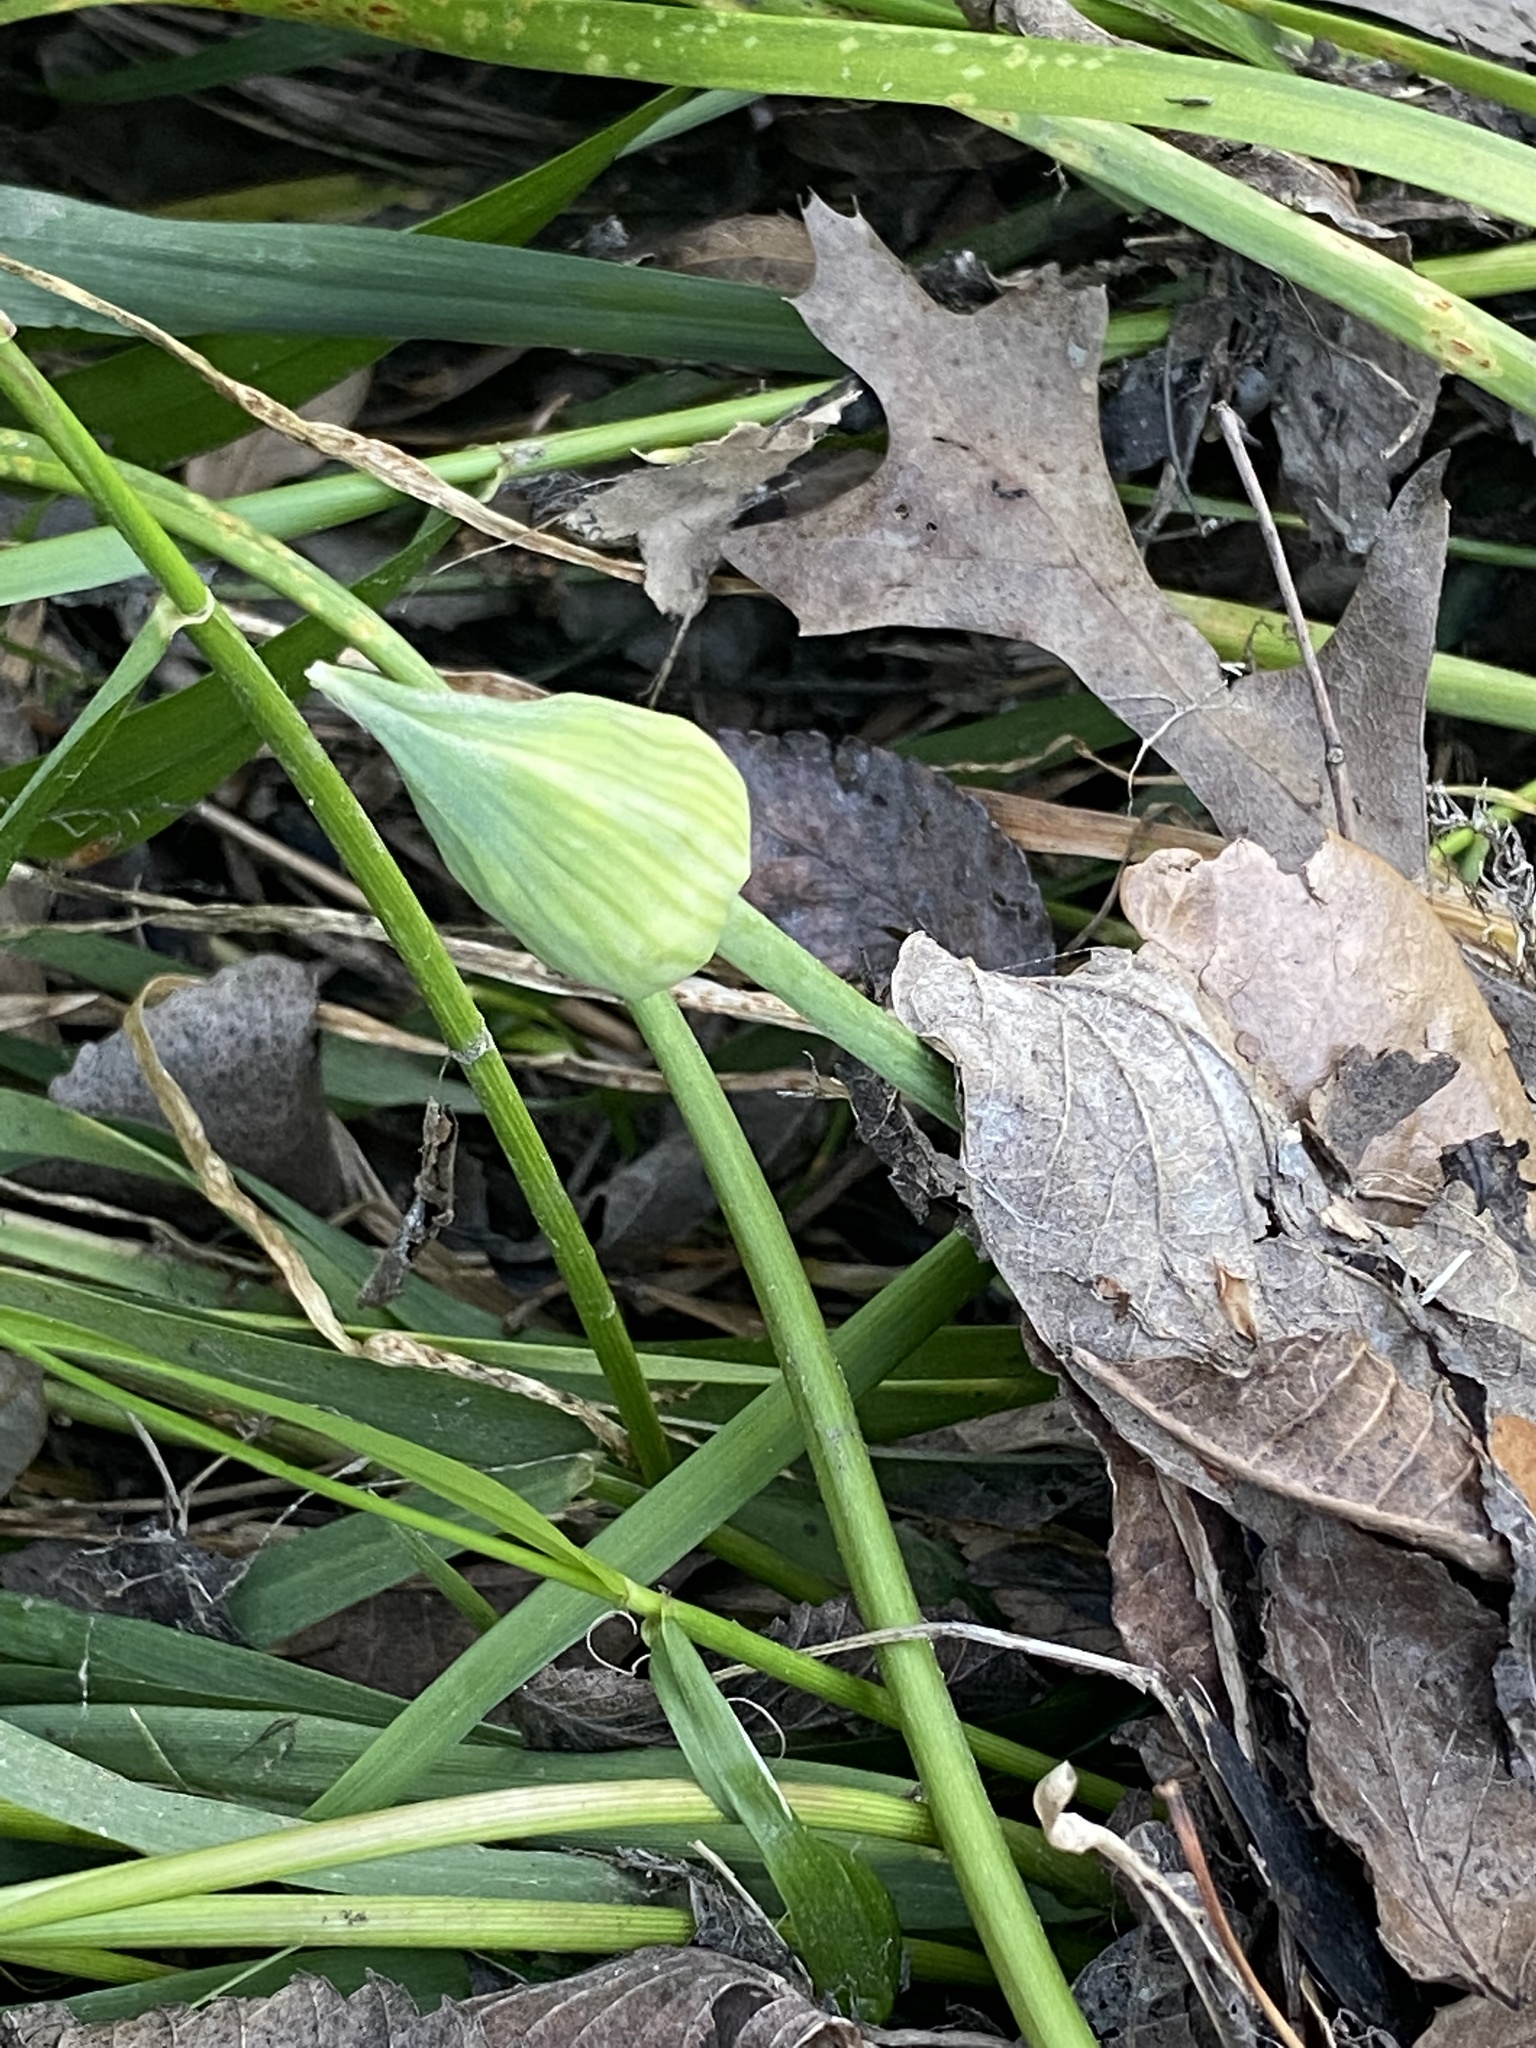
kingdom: Plantae
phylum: Tracheophyta
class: Liliopsida
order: Asparagales
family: Amaryllidaceae
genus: Allium
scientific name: Allium canadense
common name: Meadow garlic
